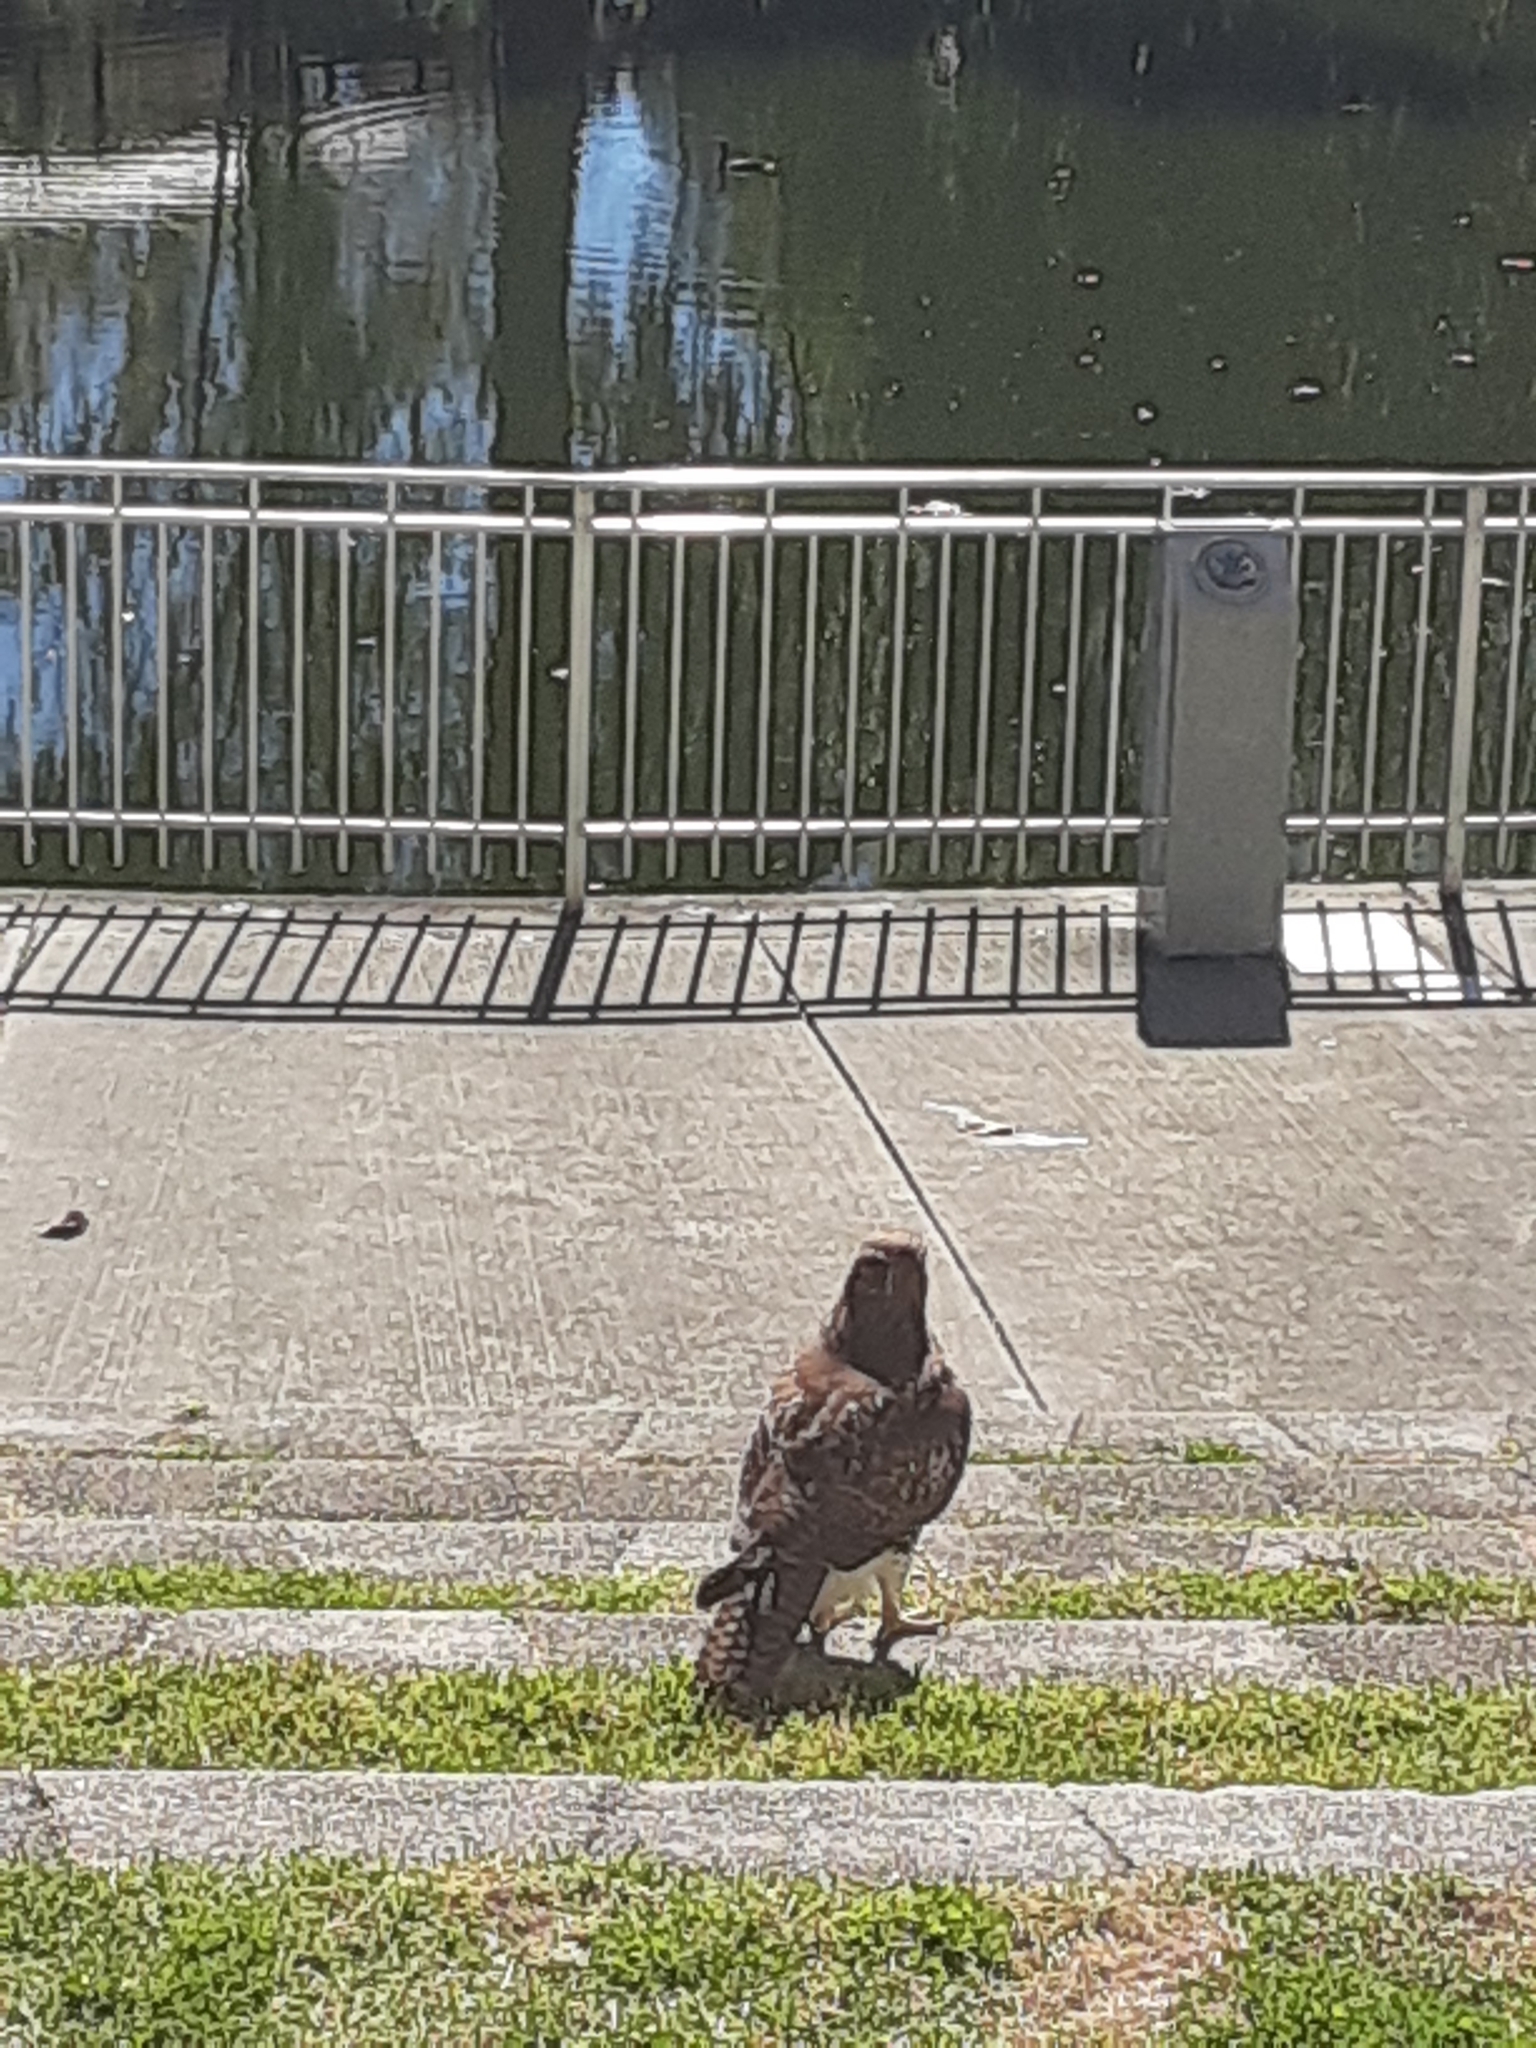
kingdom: Animalia
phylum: Chordata
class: Aves
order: Accipitriformes
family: Accipitridae
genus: Buteo
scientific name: Buteo jamaicensis
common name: Red-tailed hawk
